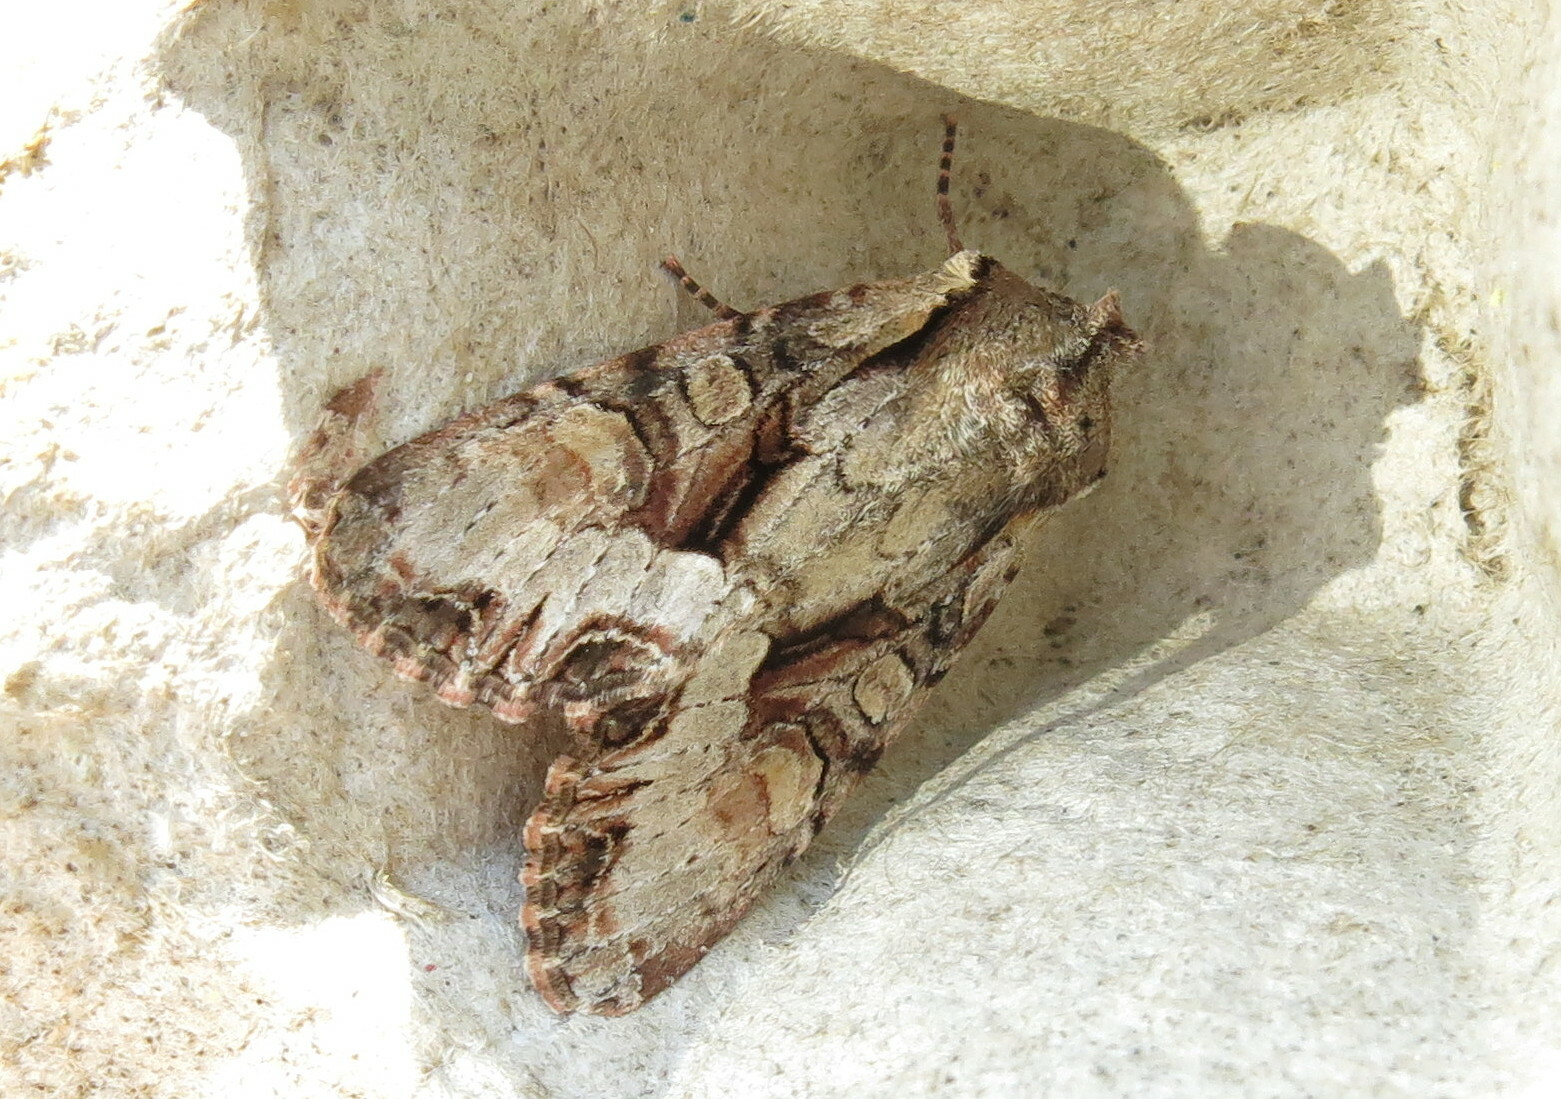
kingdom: Animalia
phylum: Arthropoda
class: Insecta
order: Lepidoptera
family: Noctuidae
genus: Lacanobia
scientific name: Lacanobia w-latinum
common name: Light brocade
